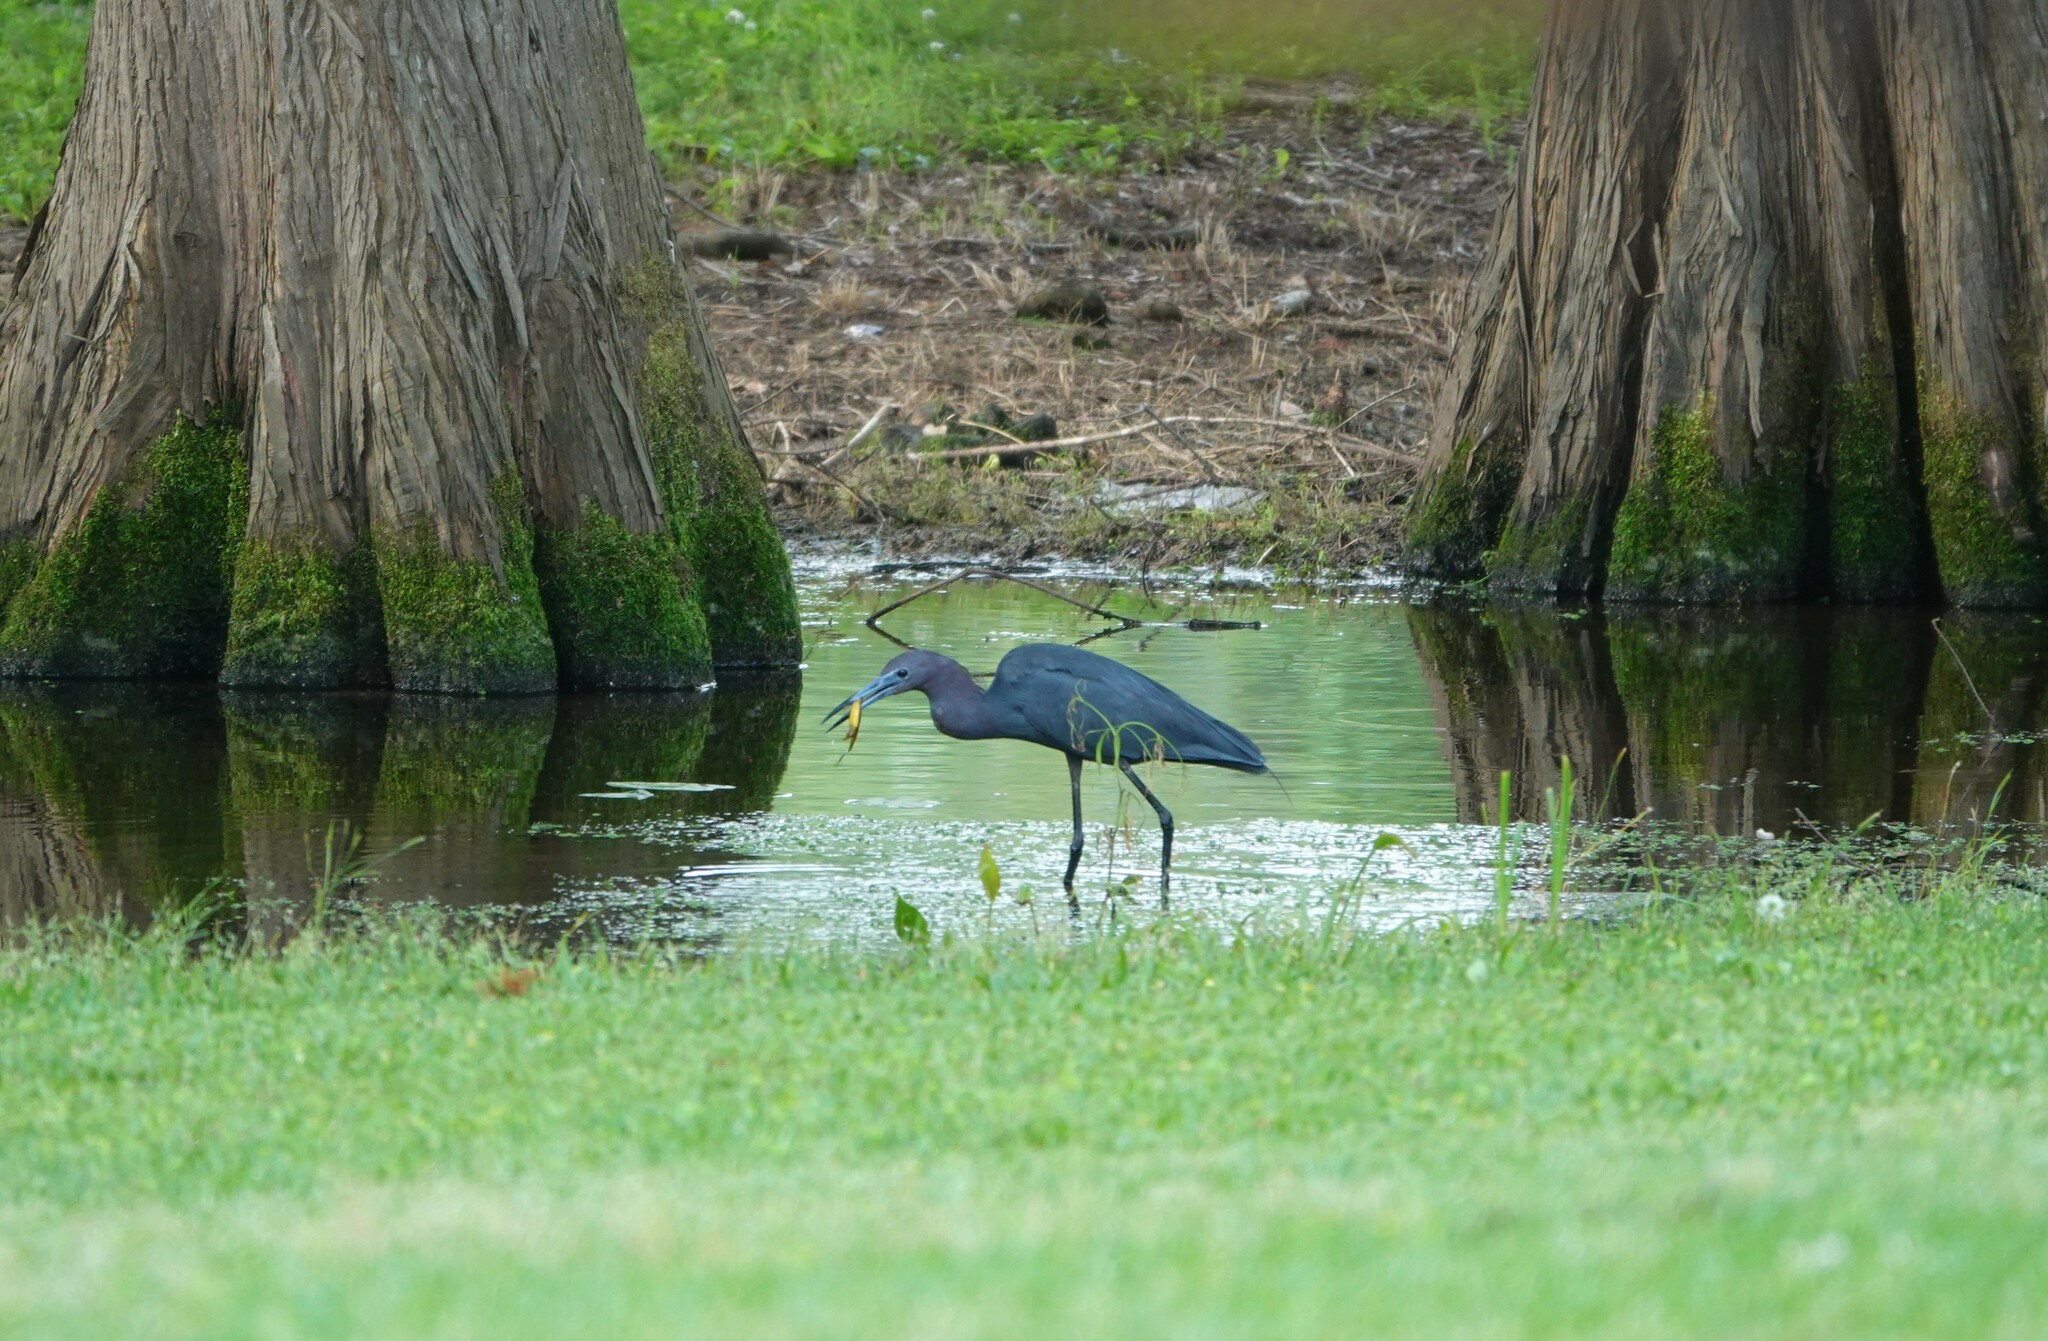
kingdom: Animalia
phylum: Chordata
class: Aves
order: Pelecaniformes
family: Ardeidae
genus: Egretta
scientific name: Egretta caerulea
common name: Little blue heron
